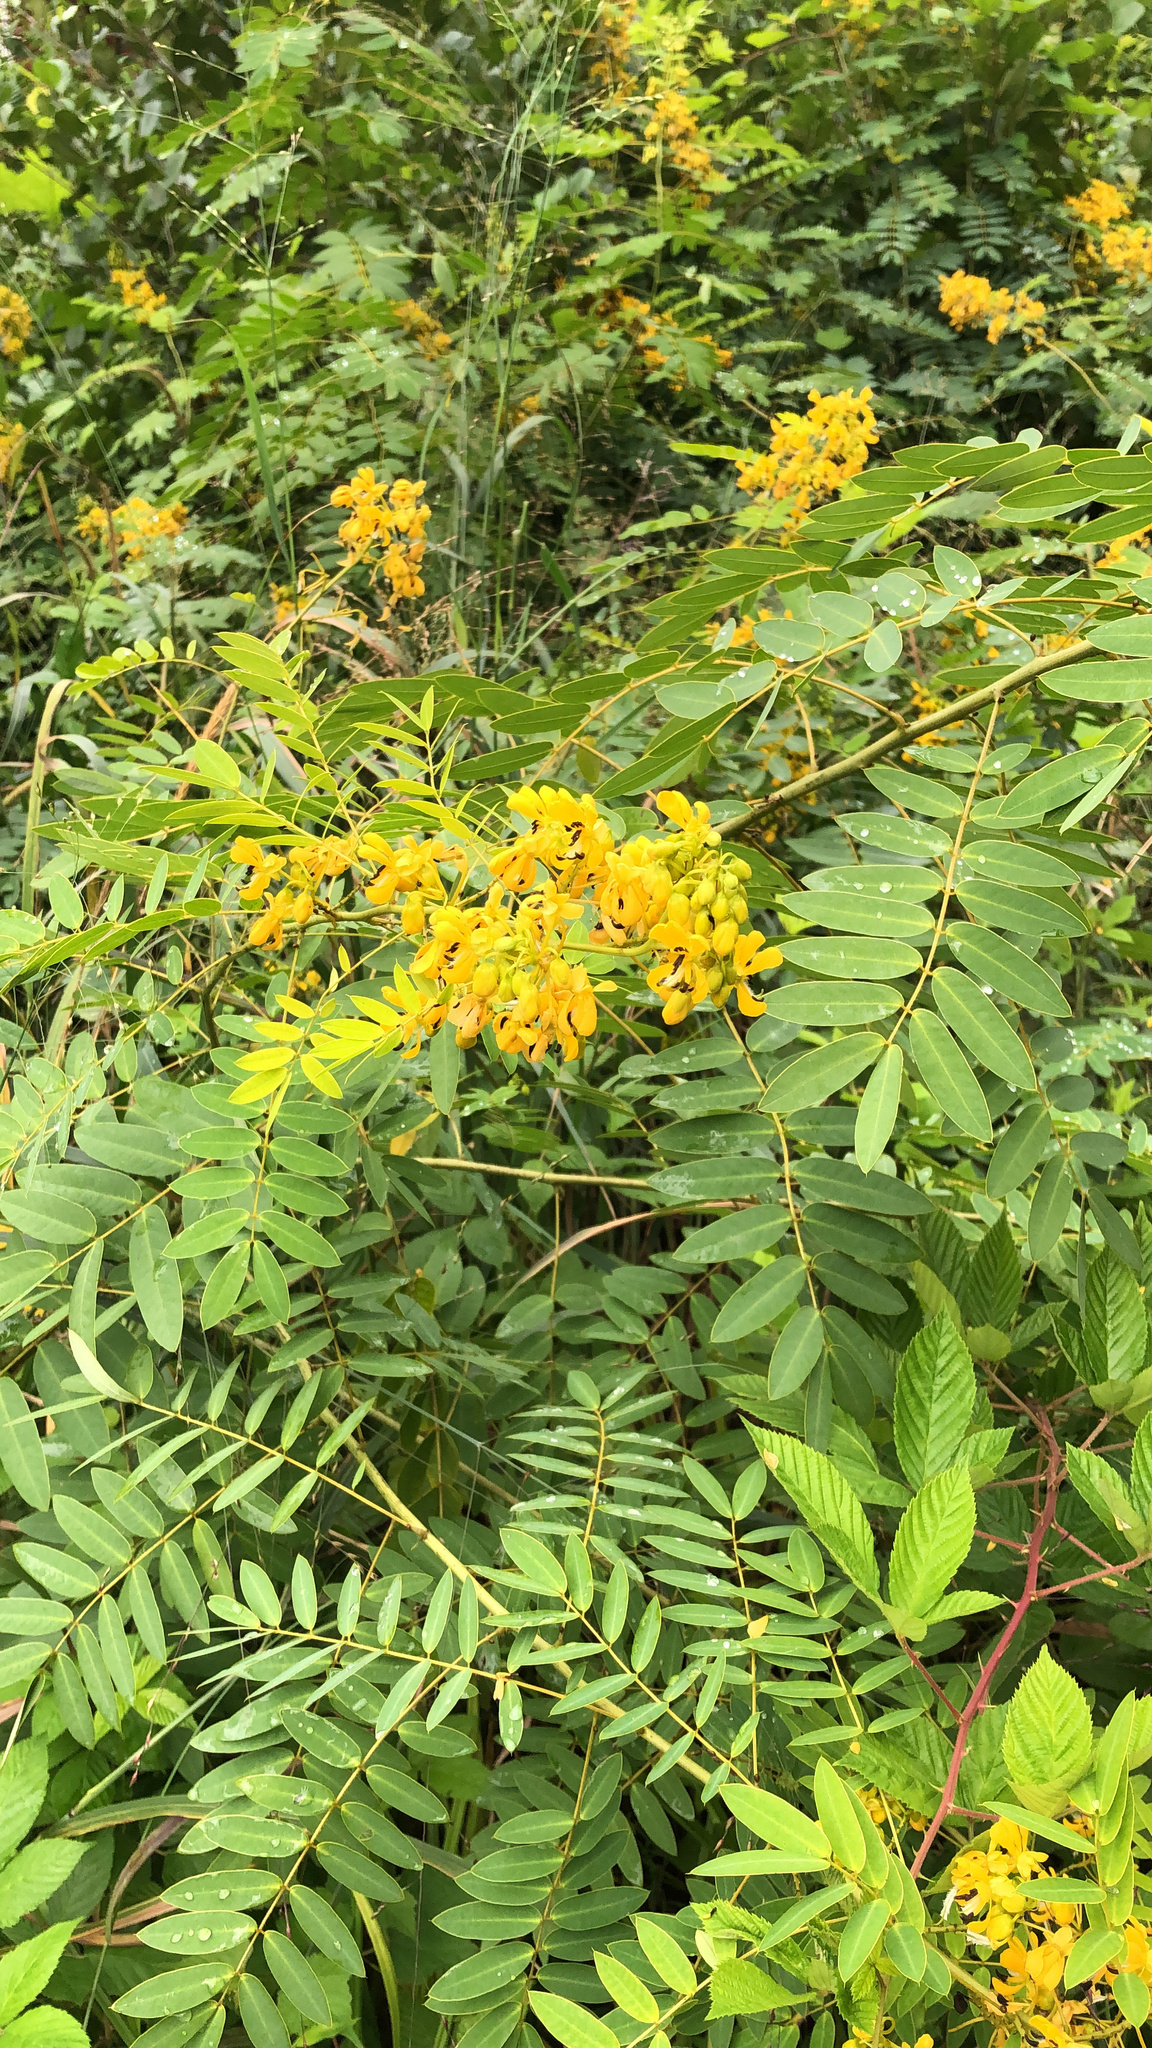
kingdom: Plantae
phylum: Tracheophyta
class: Magnoliopsida
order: Fabales
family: Fabaceae
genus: Senna
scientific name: Senna hebecarpa
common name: Wild senna
